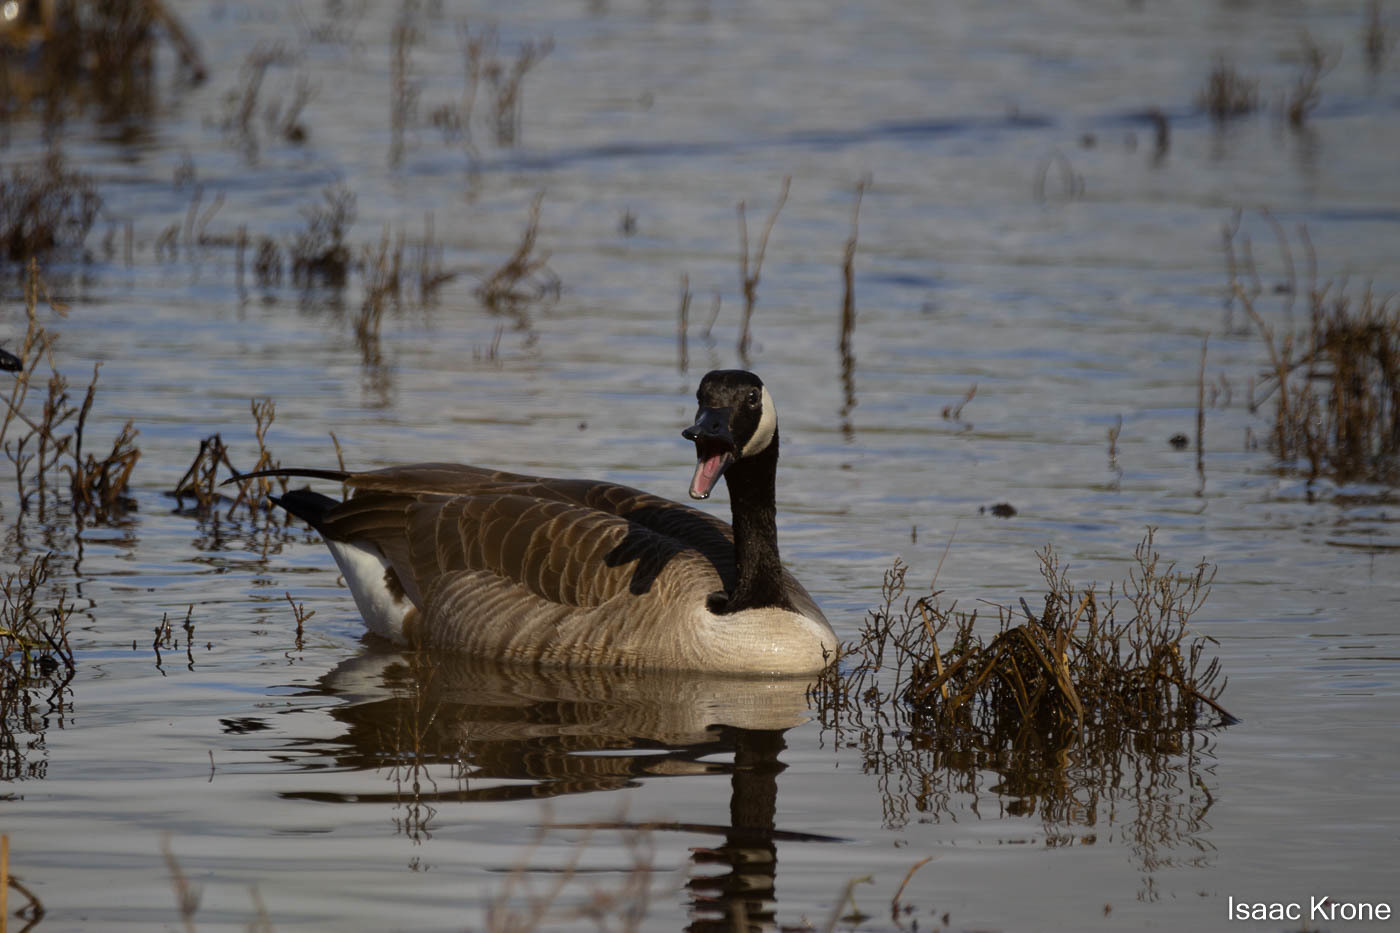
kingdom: Animalia
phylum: Chordata
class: Aves
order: Anseriformes
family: Anatidae
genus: Branta
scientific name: Branta canadensis
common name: Canada goose
